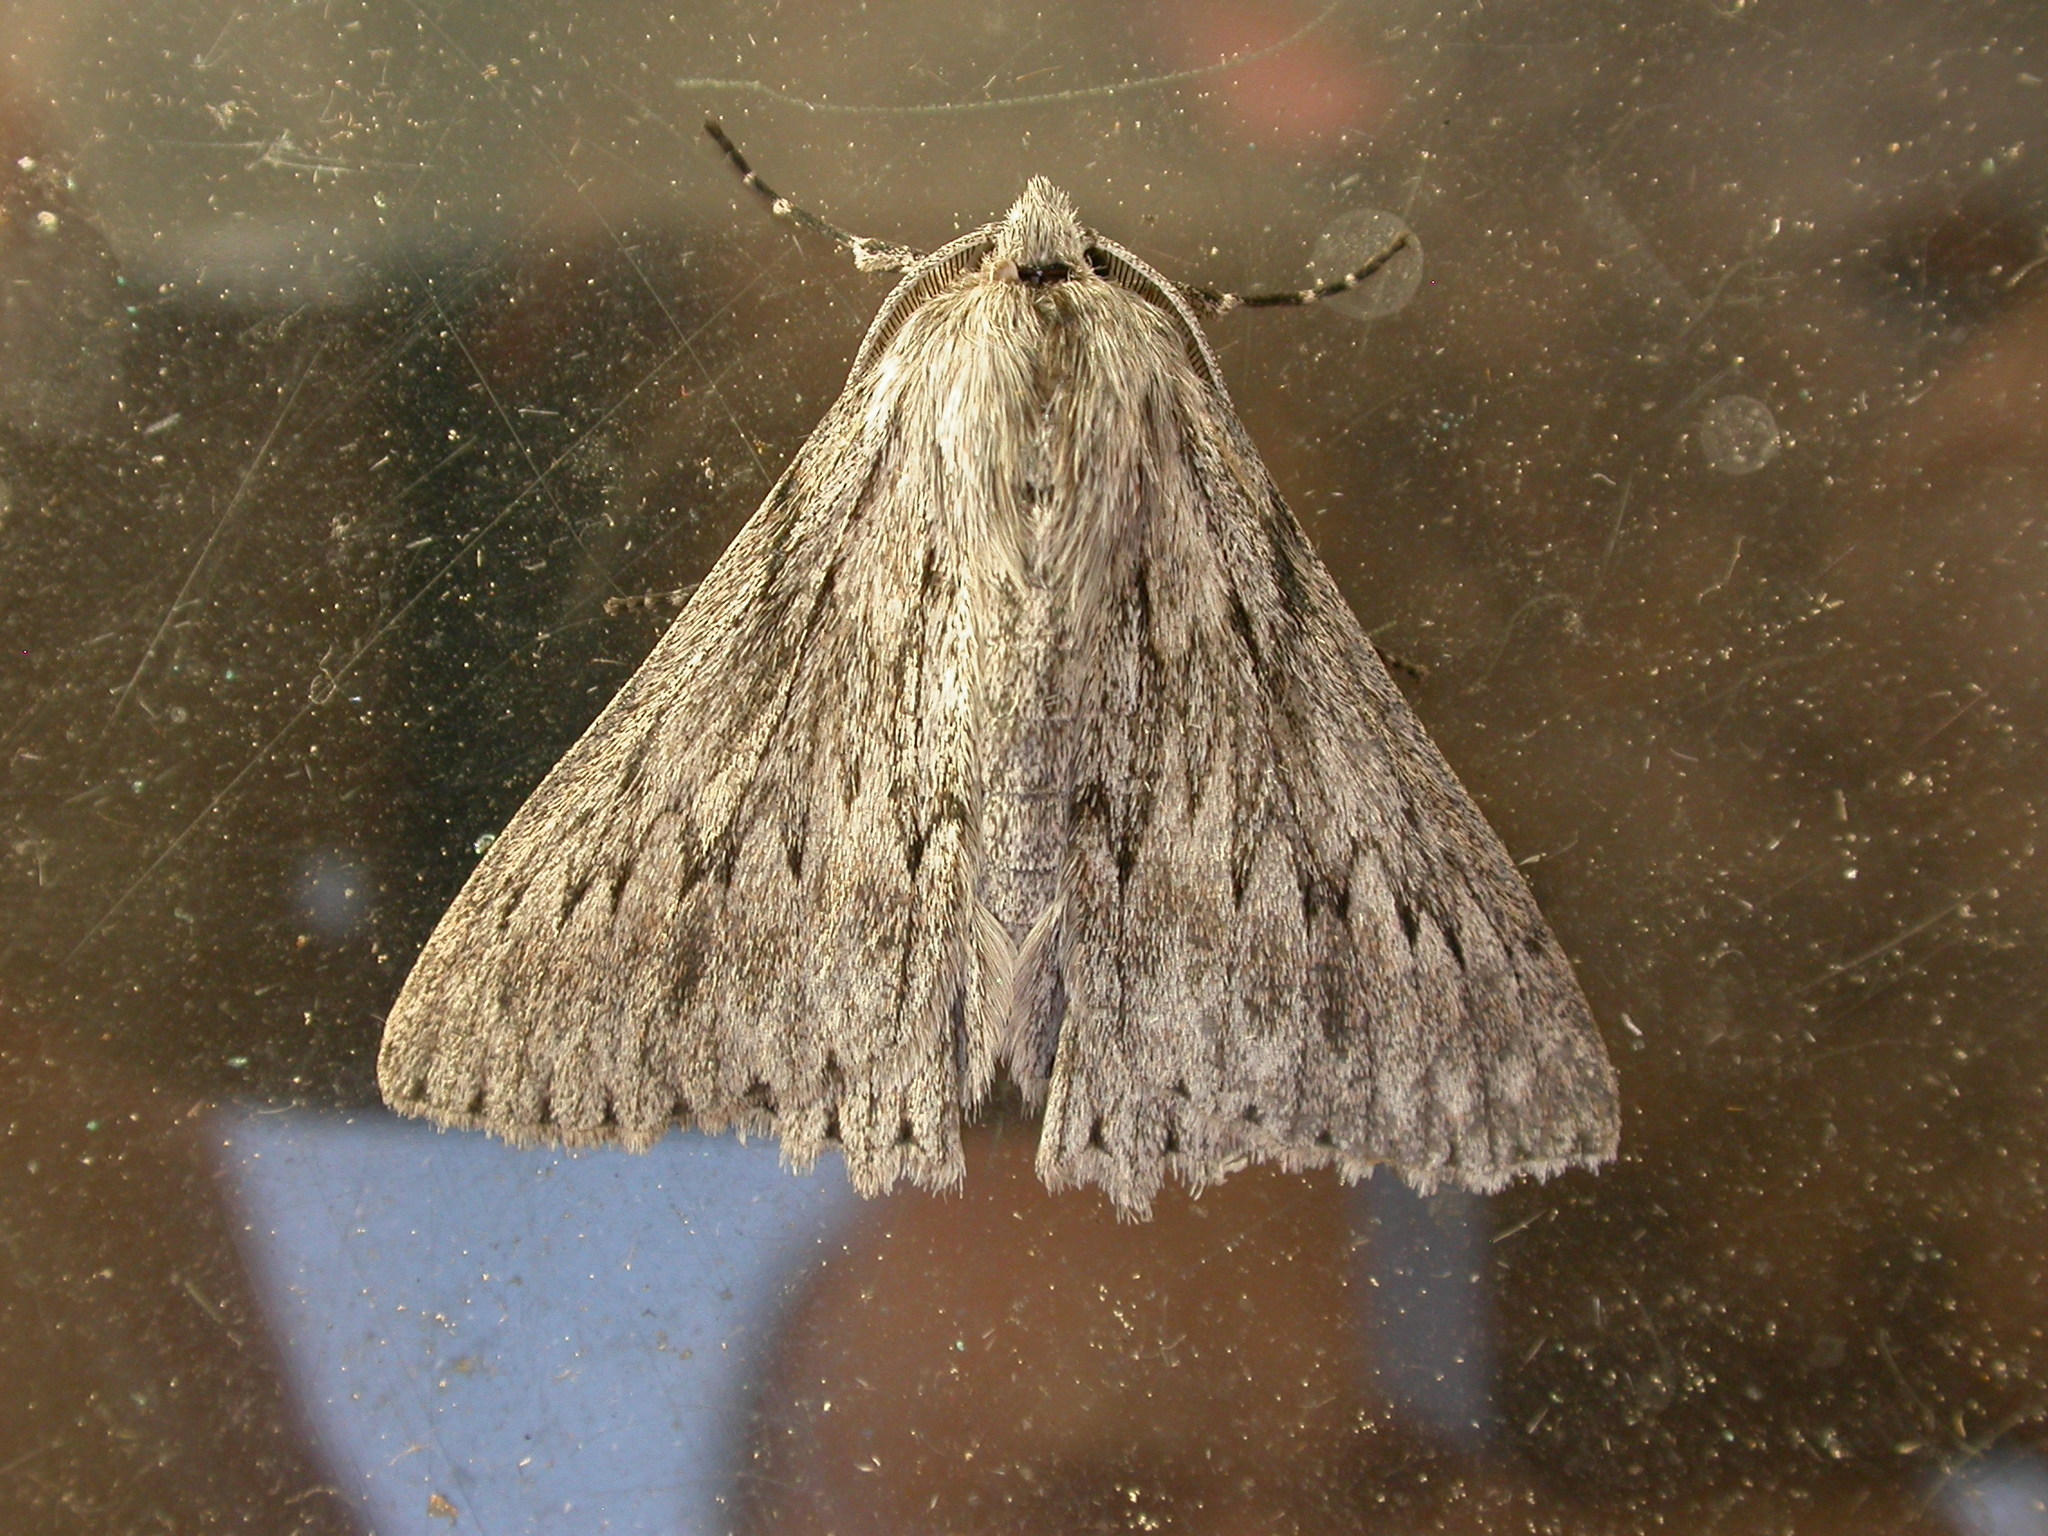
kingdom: Animalia
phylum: Arthropoda
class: Insecta
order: Lepidoptera
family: Geometridae
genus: Cyneoterpna
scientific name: Cyneoterpna wilsoni
